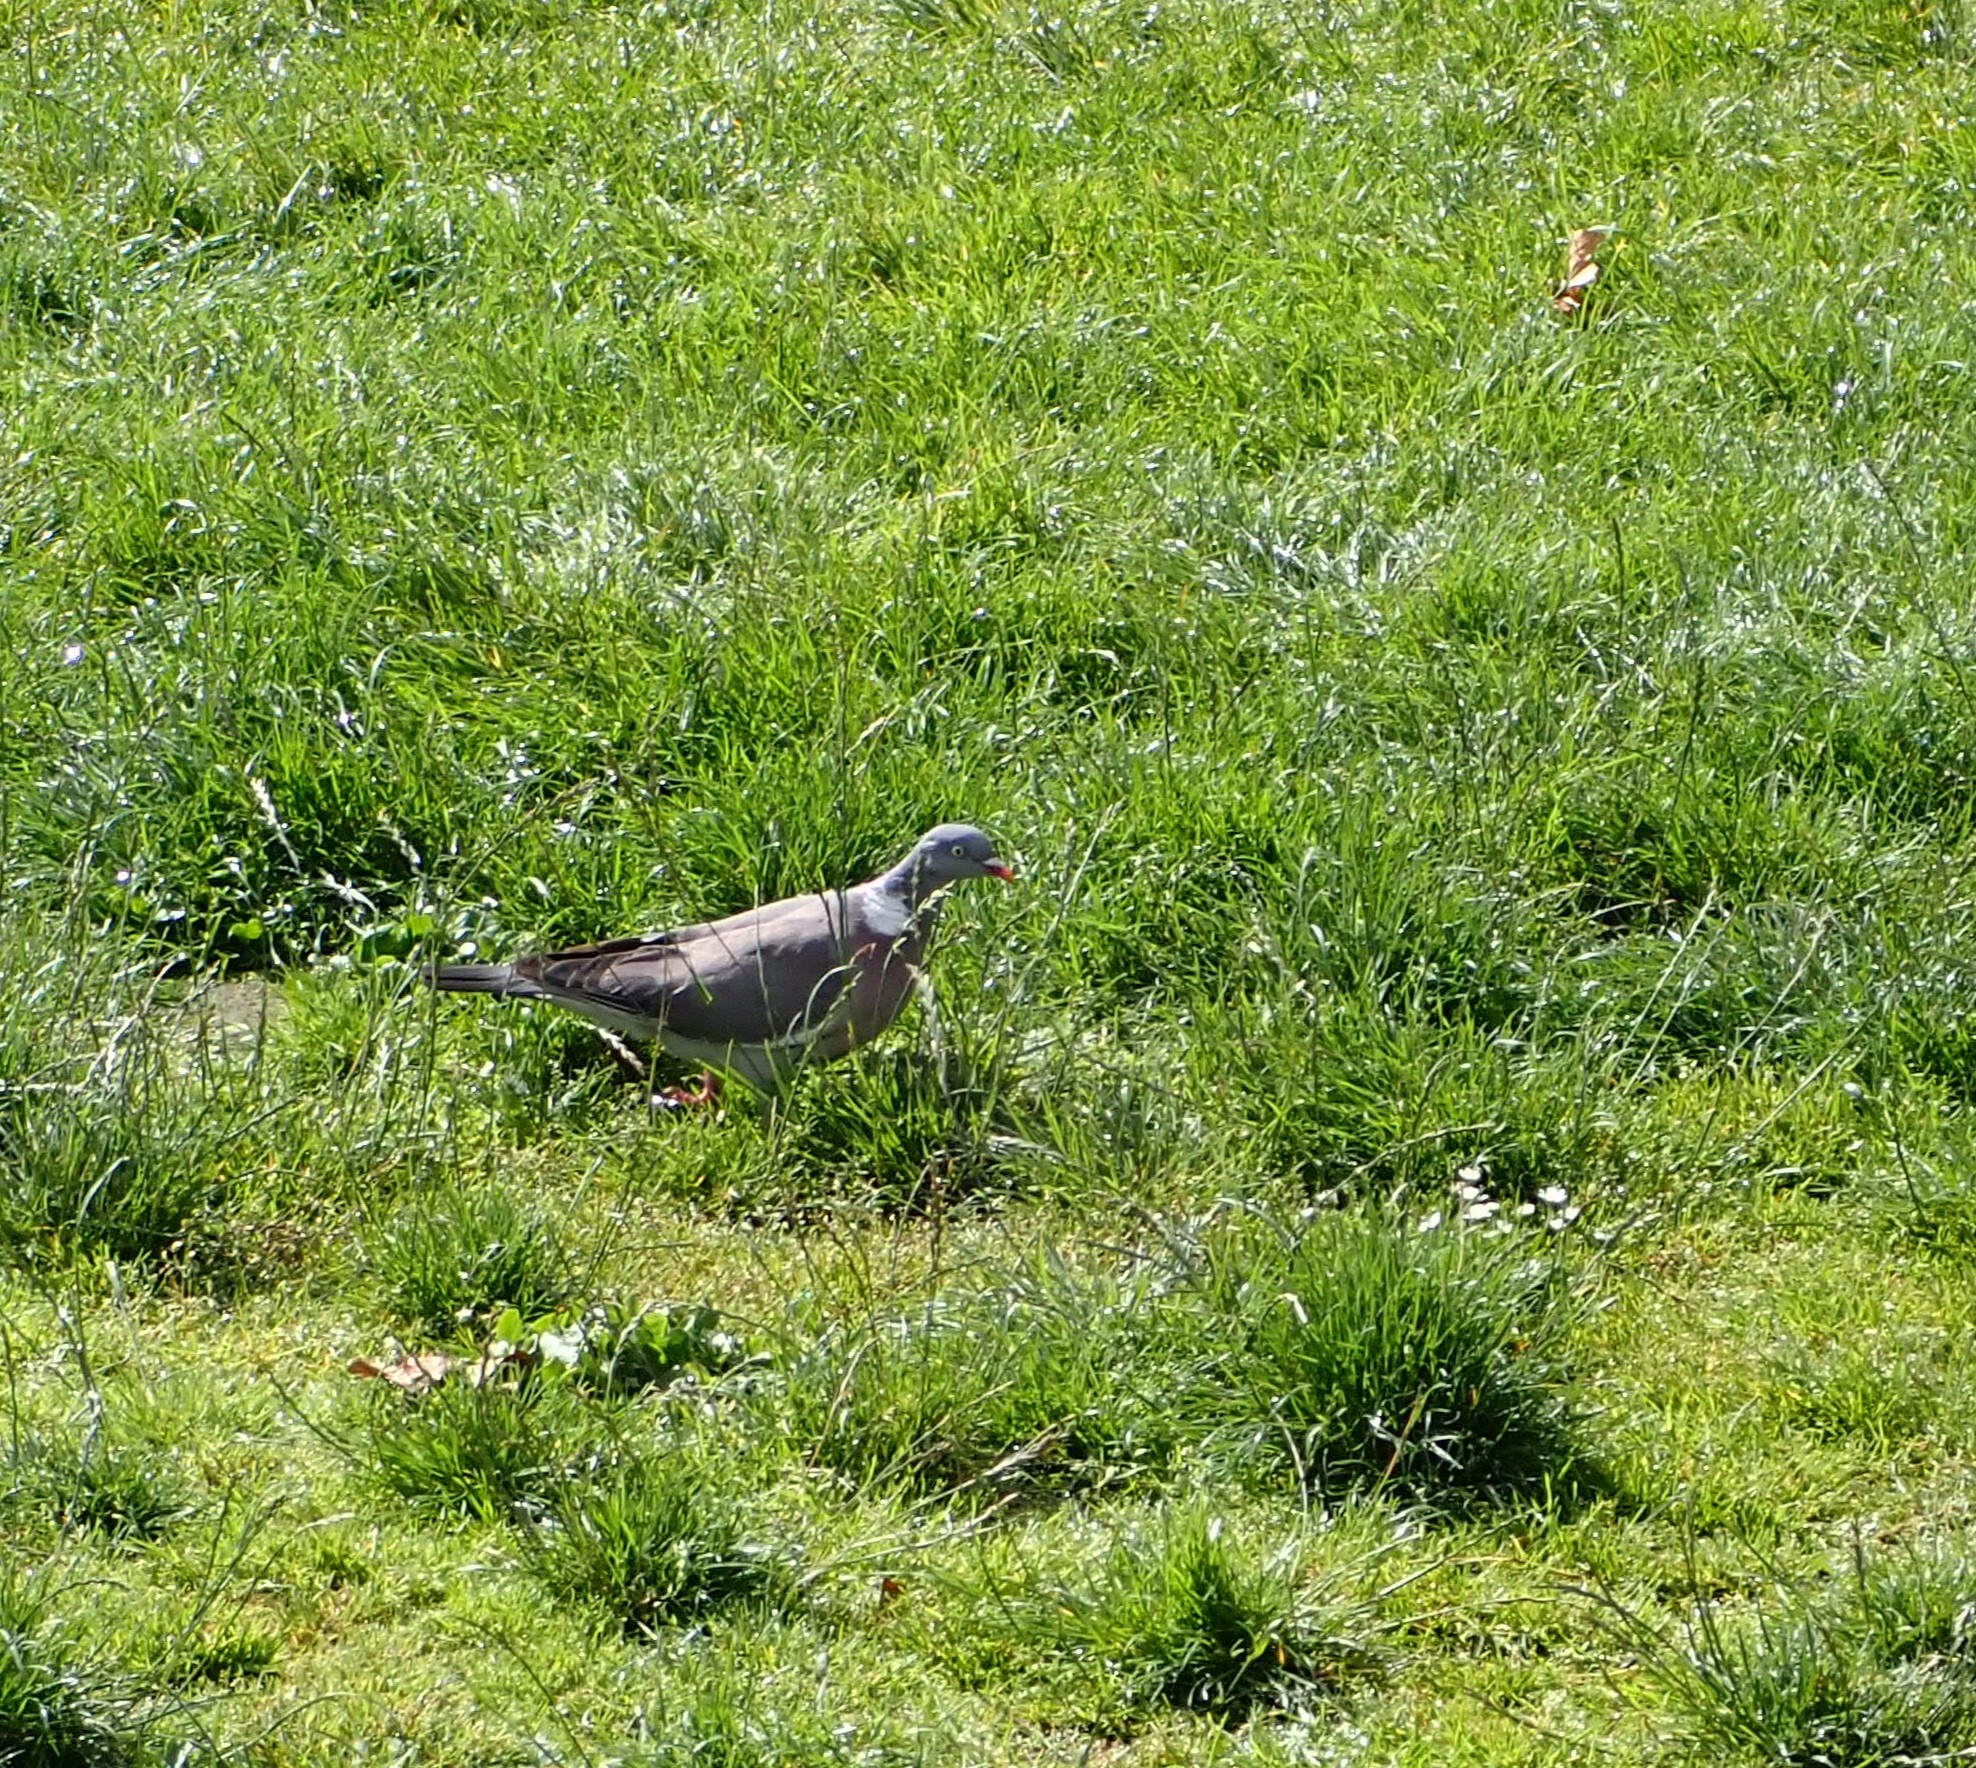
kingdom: Animalia
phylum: Chordata
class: Aves
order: Columbiformes
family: Columbidae
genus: Columba
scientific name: Columba palumbus
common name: Common wood pigeon
